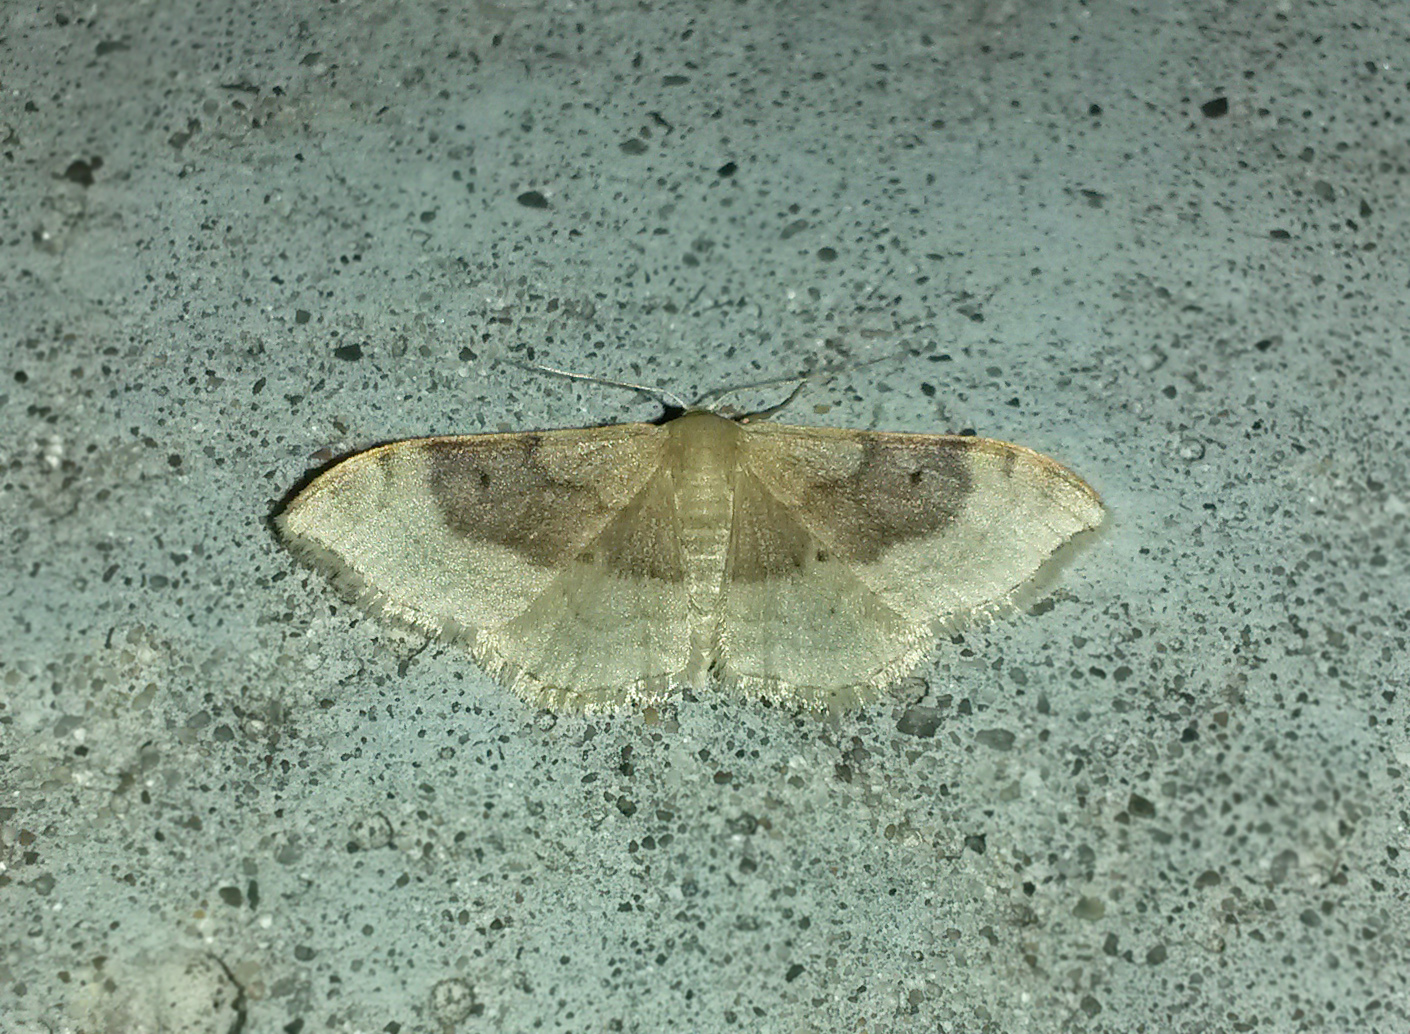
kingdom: Animalia
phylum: Arthropoda
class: Insecta
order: Lepidoptera
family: Geometridae
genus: Idaea
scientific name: Idaea degeneraria
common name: Portland ribbon wave
